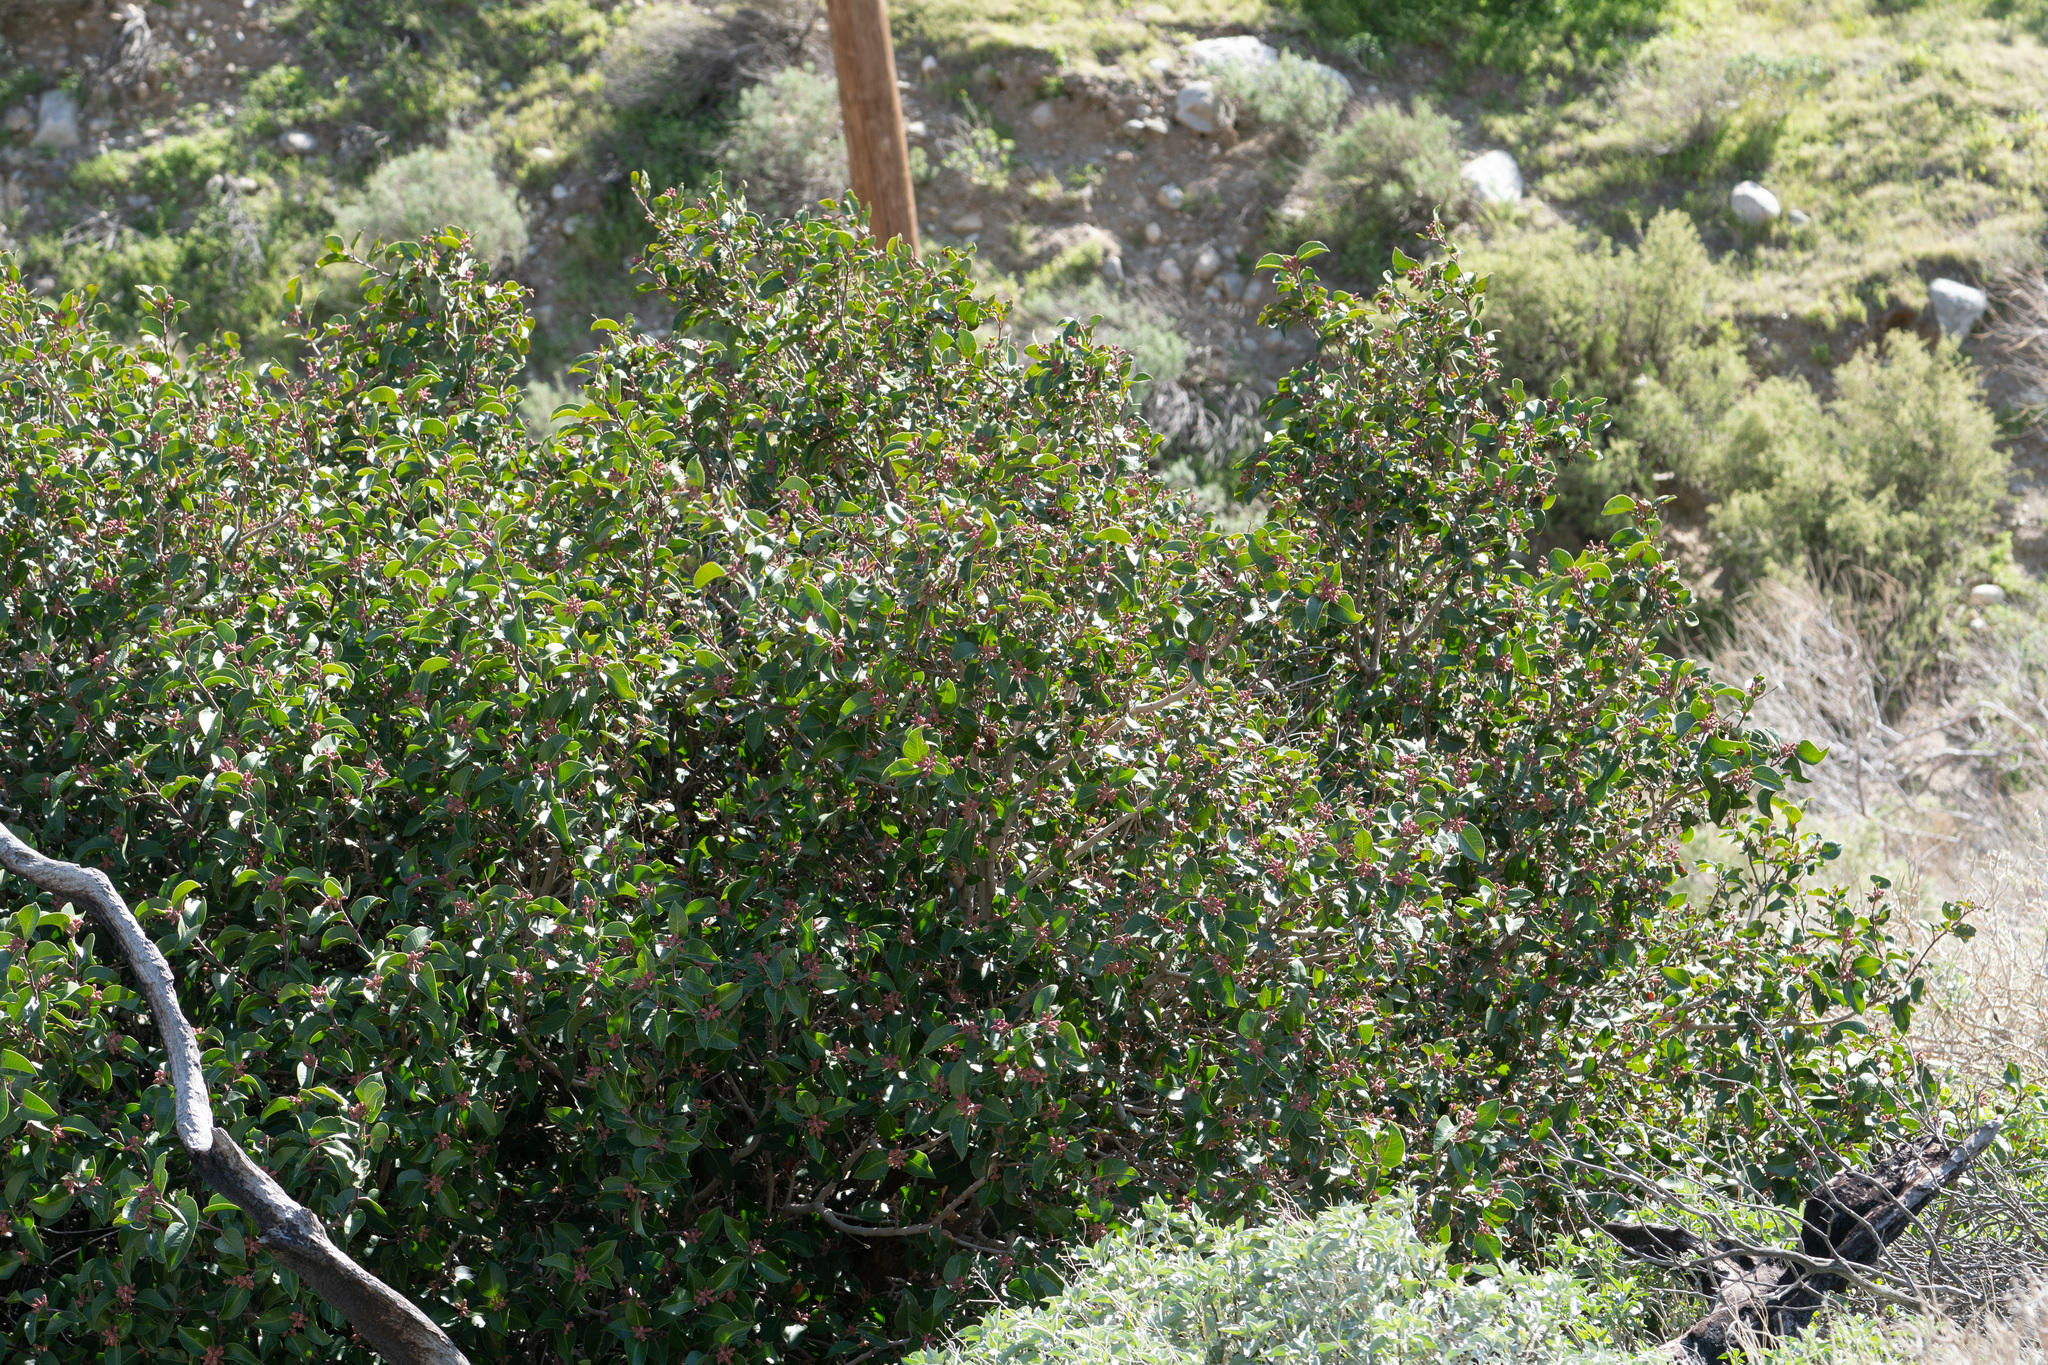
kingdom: Plantae
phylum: Tracheophyta
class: Magnoliopsida
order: Sapindales
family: Anacardiaceae
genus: Rhus
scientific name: Rhus ovata
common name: Sugar sumac
